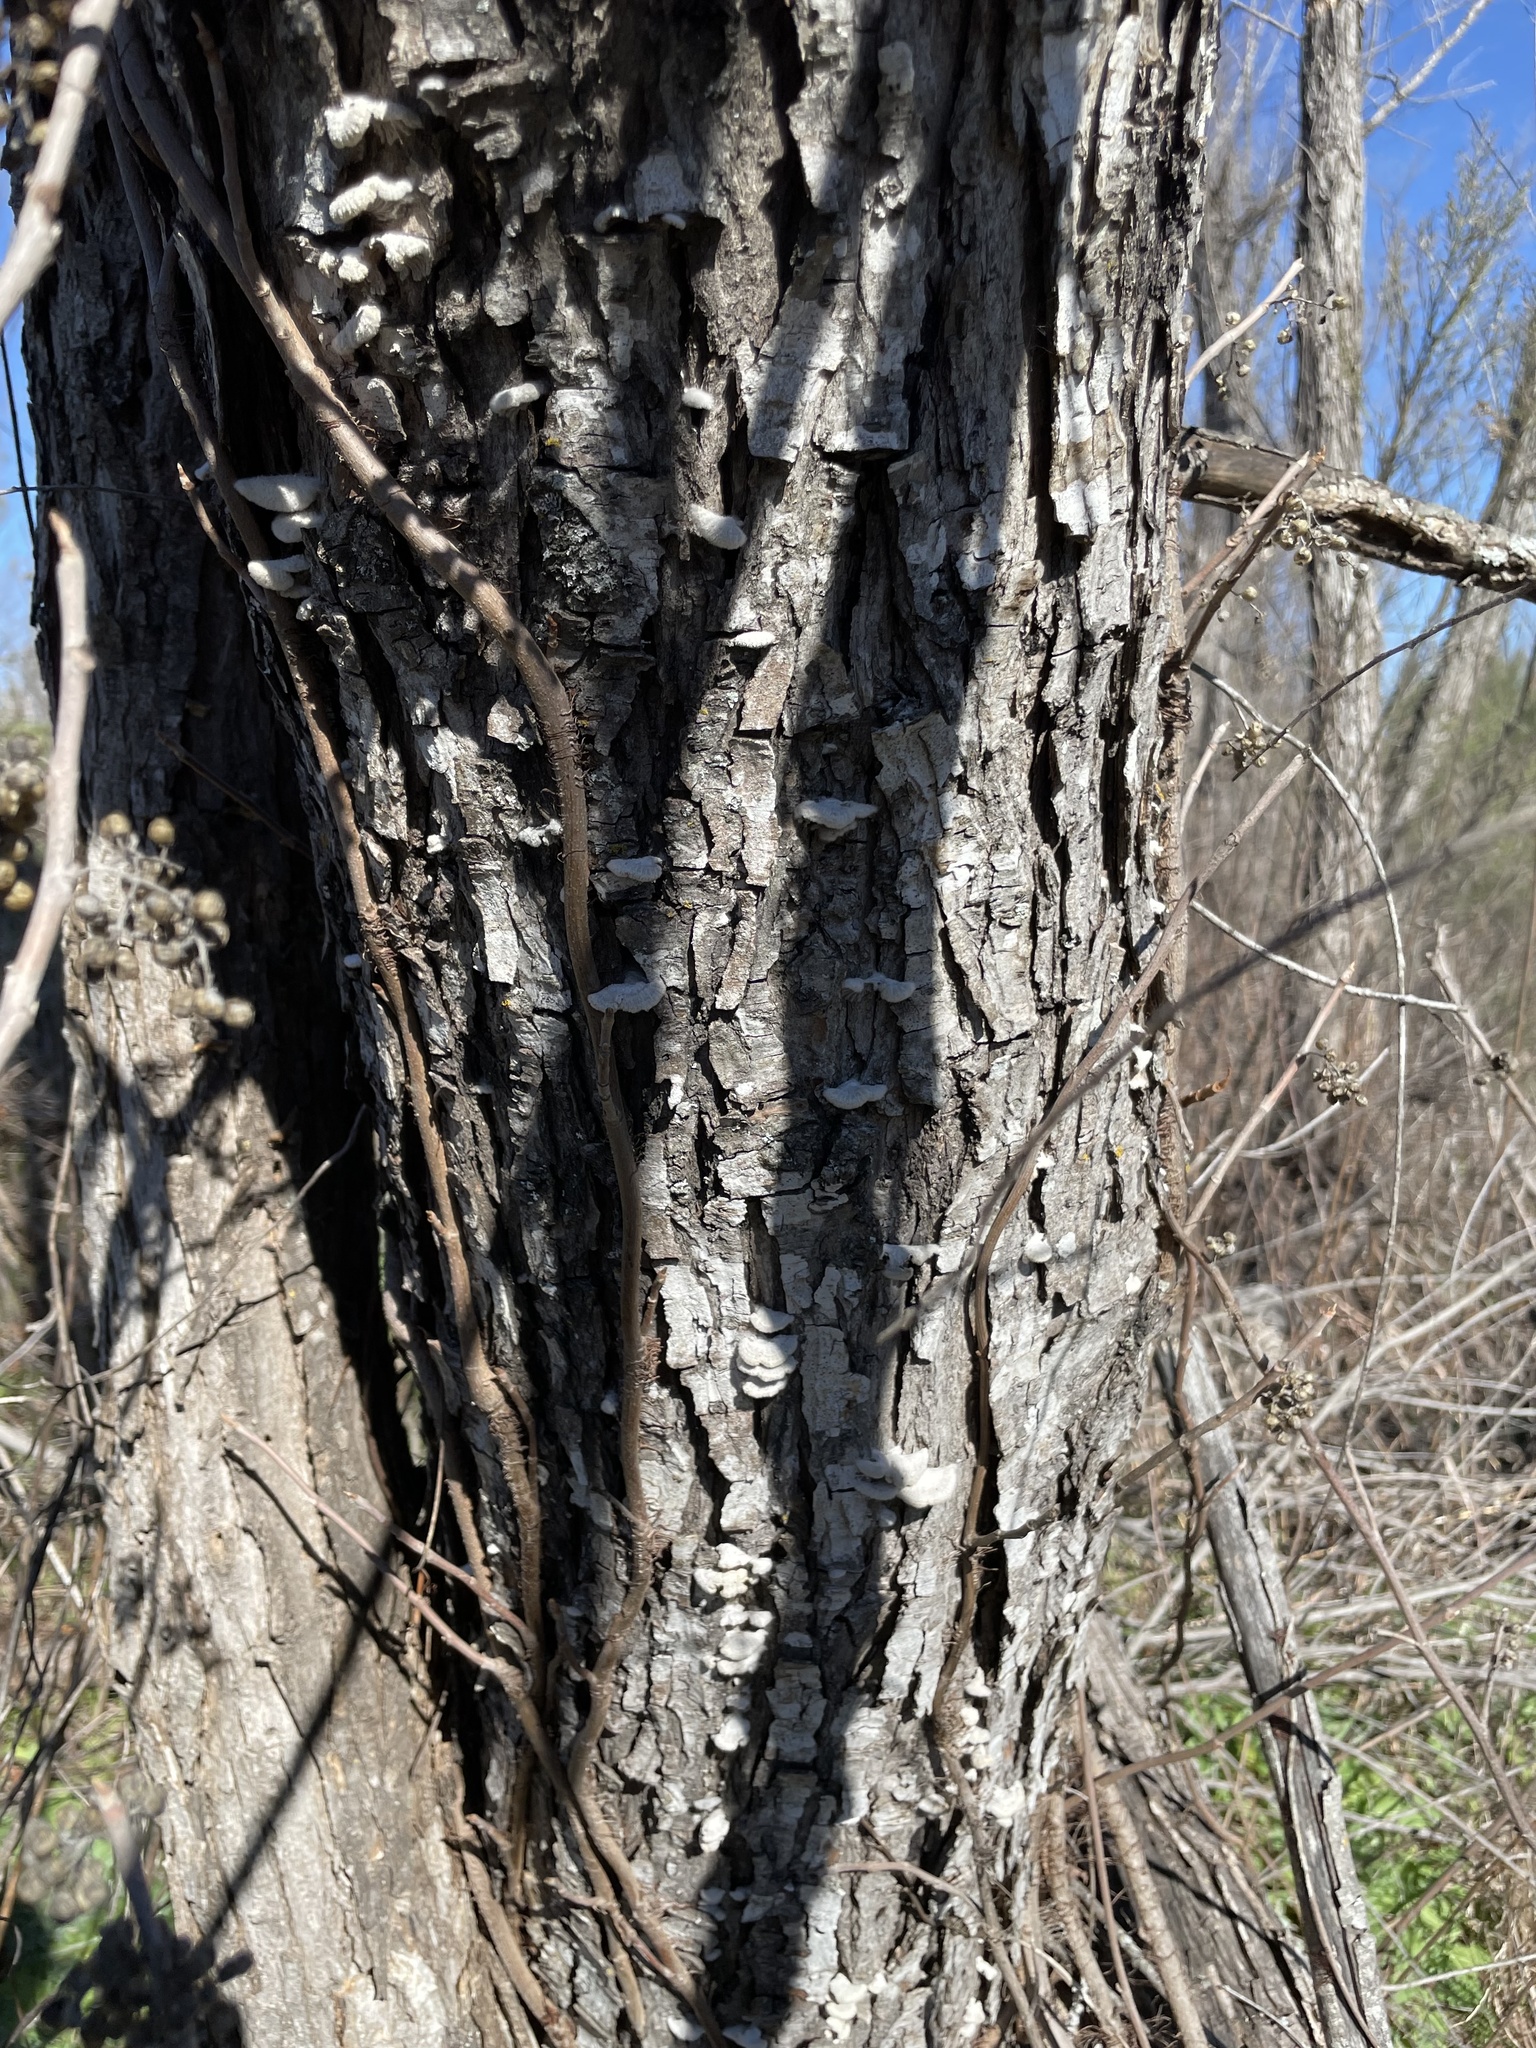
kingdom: Fungi
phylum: Basidiomycota
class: Agaricomycetes
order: Agaricales
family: Schizophyllaceae
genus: Schizophyllum
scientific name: Schizophyllum commune
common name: Common porecrust
